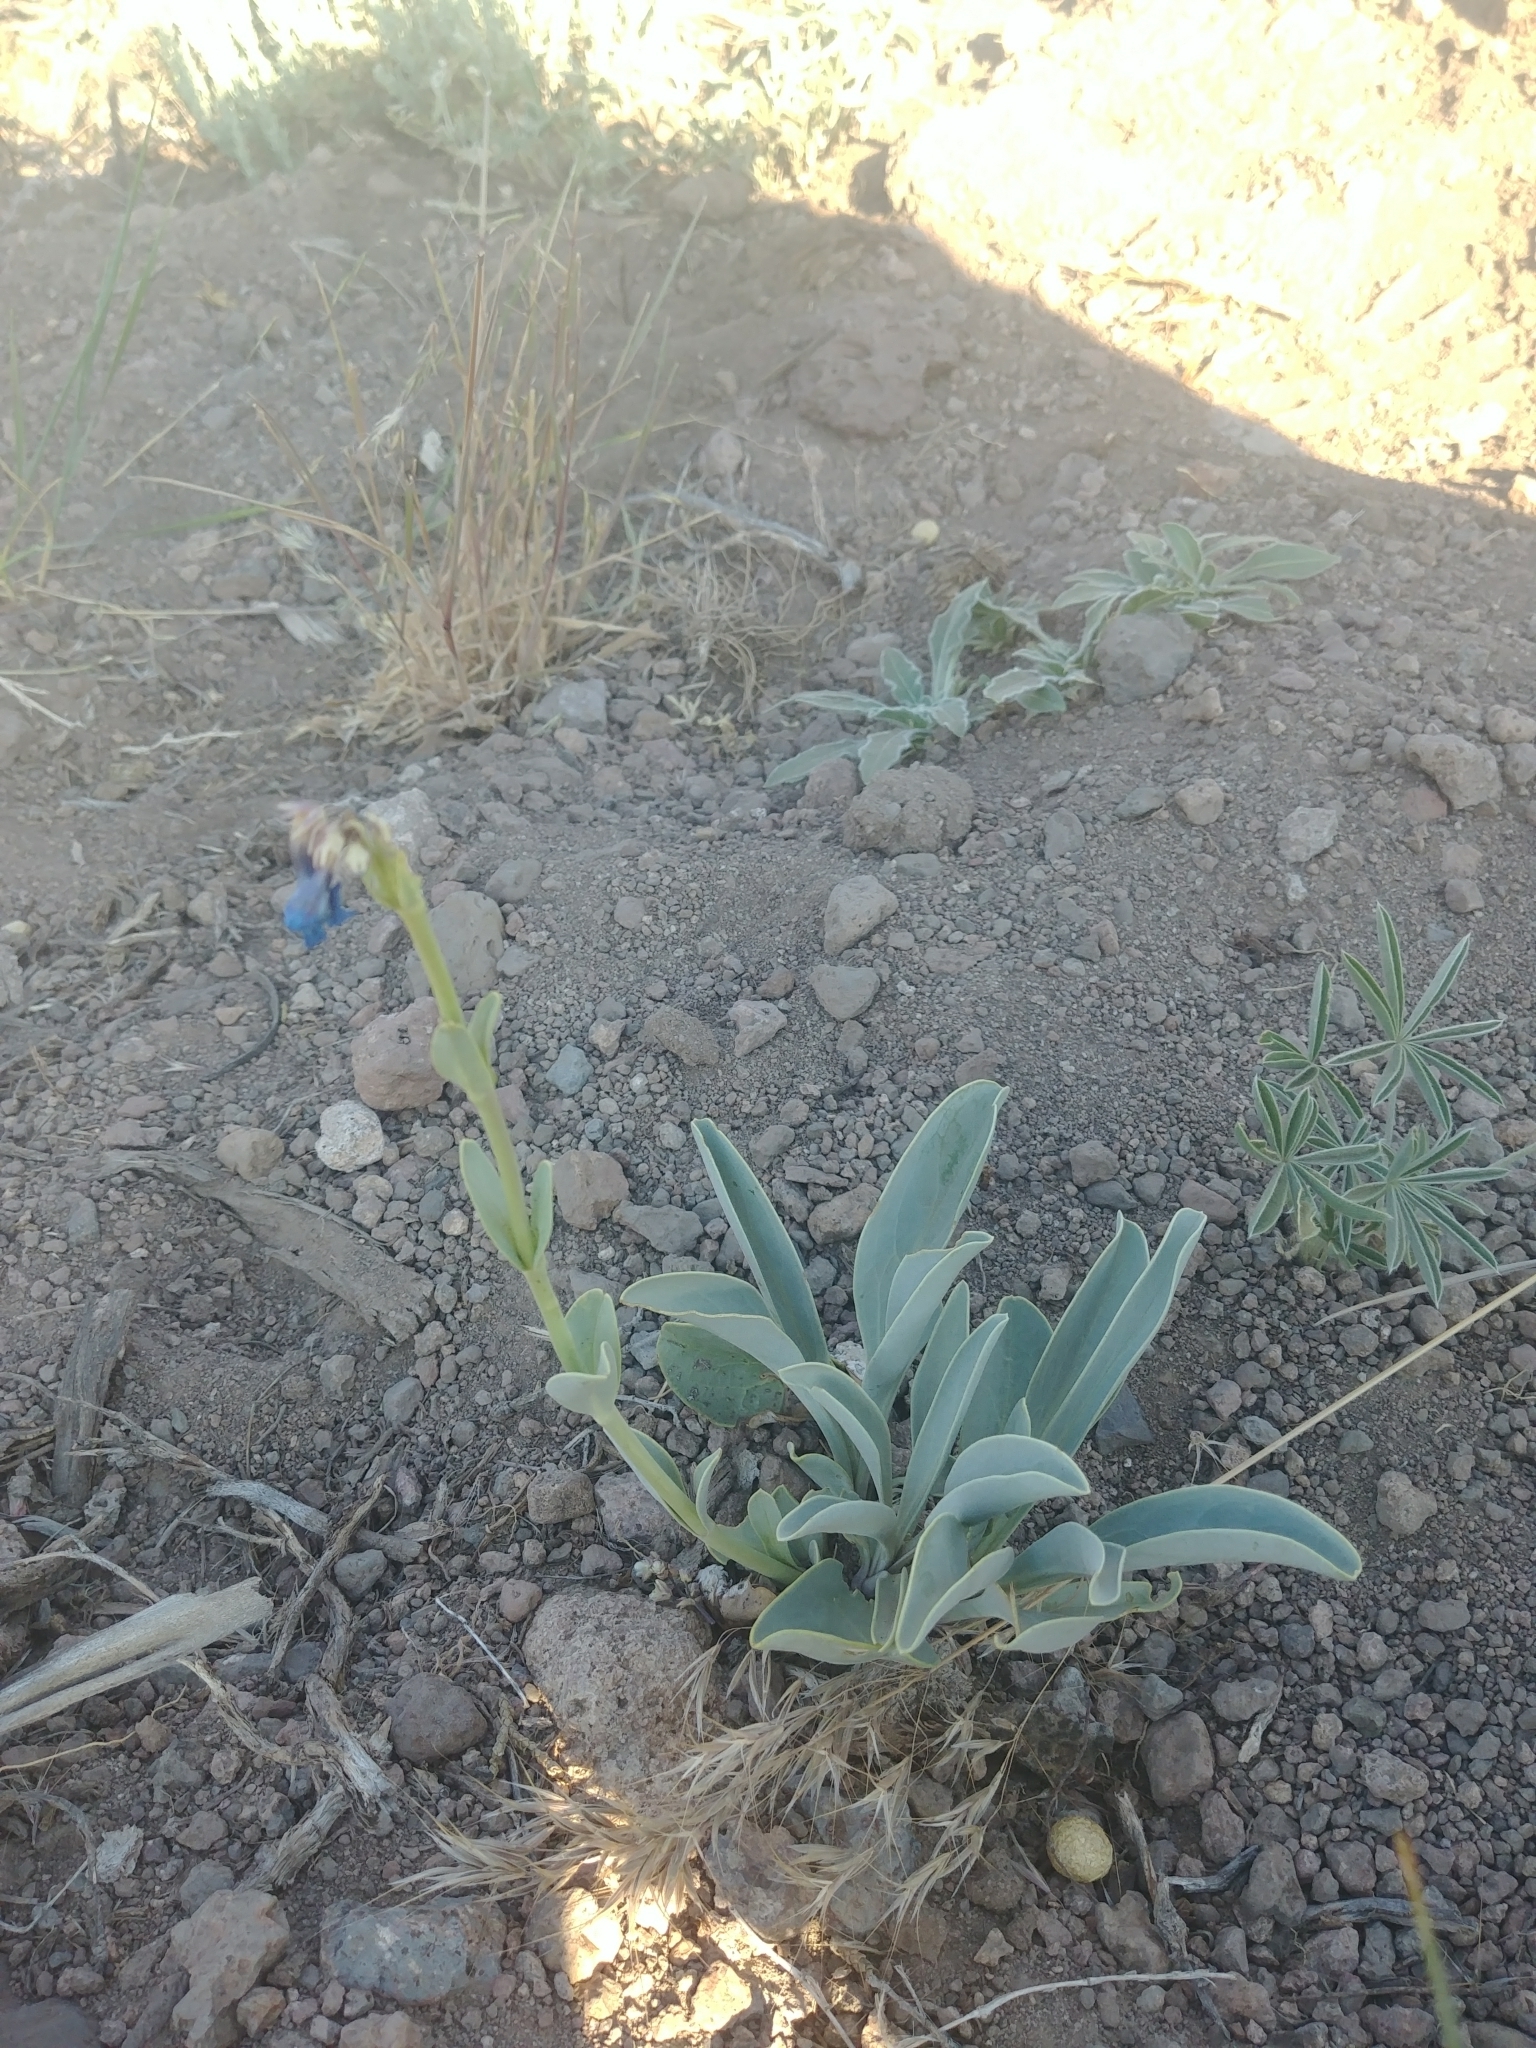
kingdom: Plantae
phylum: Tracheophyta
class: Magnoliopsida
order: Lamiales
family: Plantaginaceae
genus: Penstemon
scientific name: Penstemon pachyphyllus
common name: Thick-leaf penstemon
